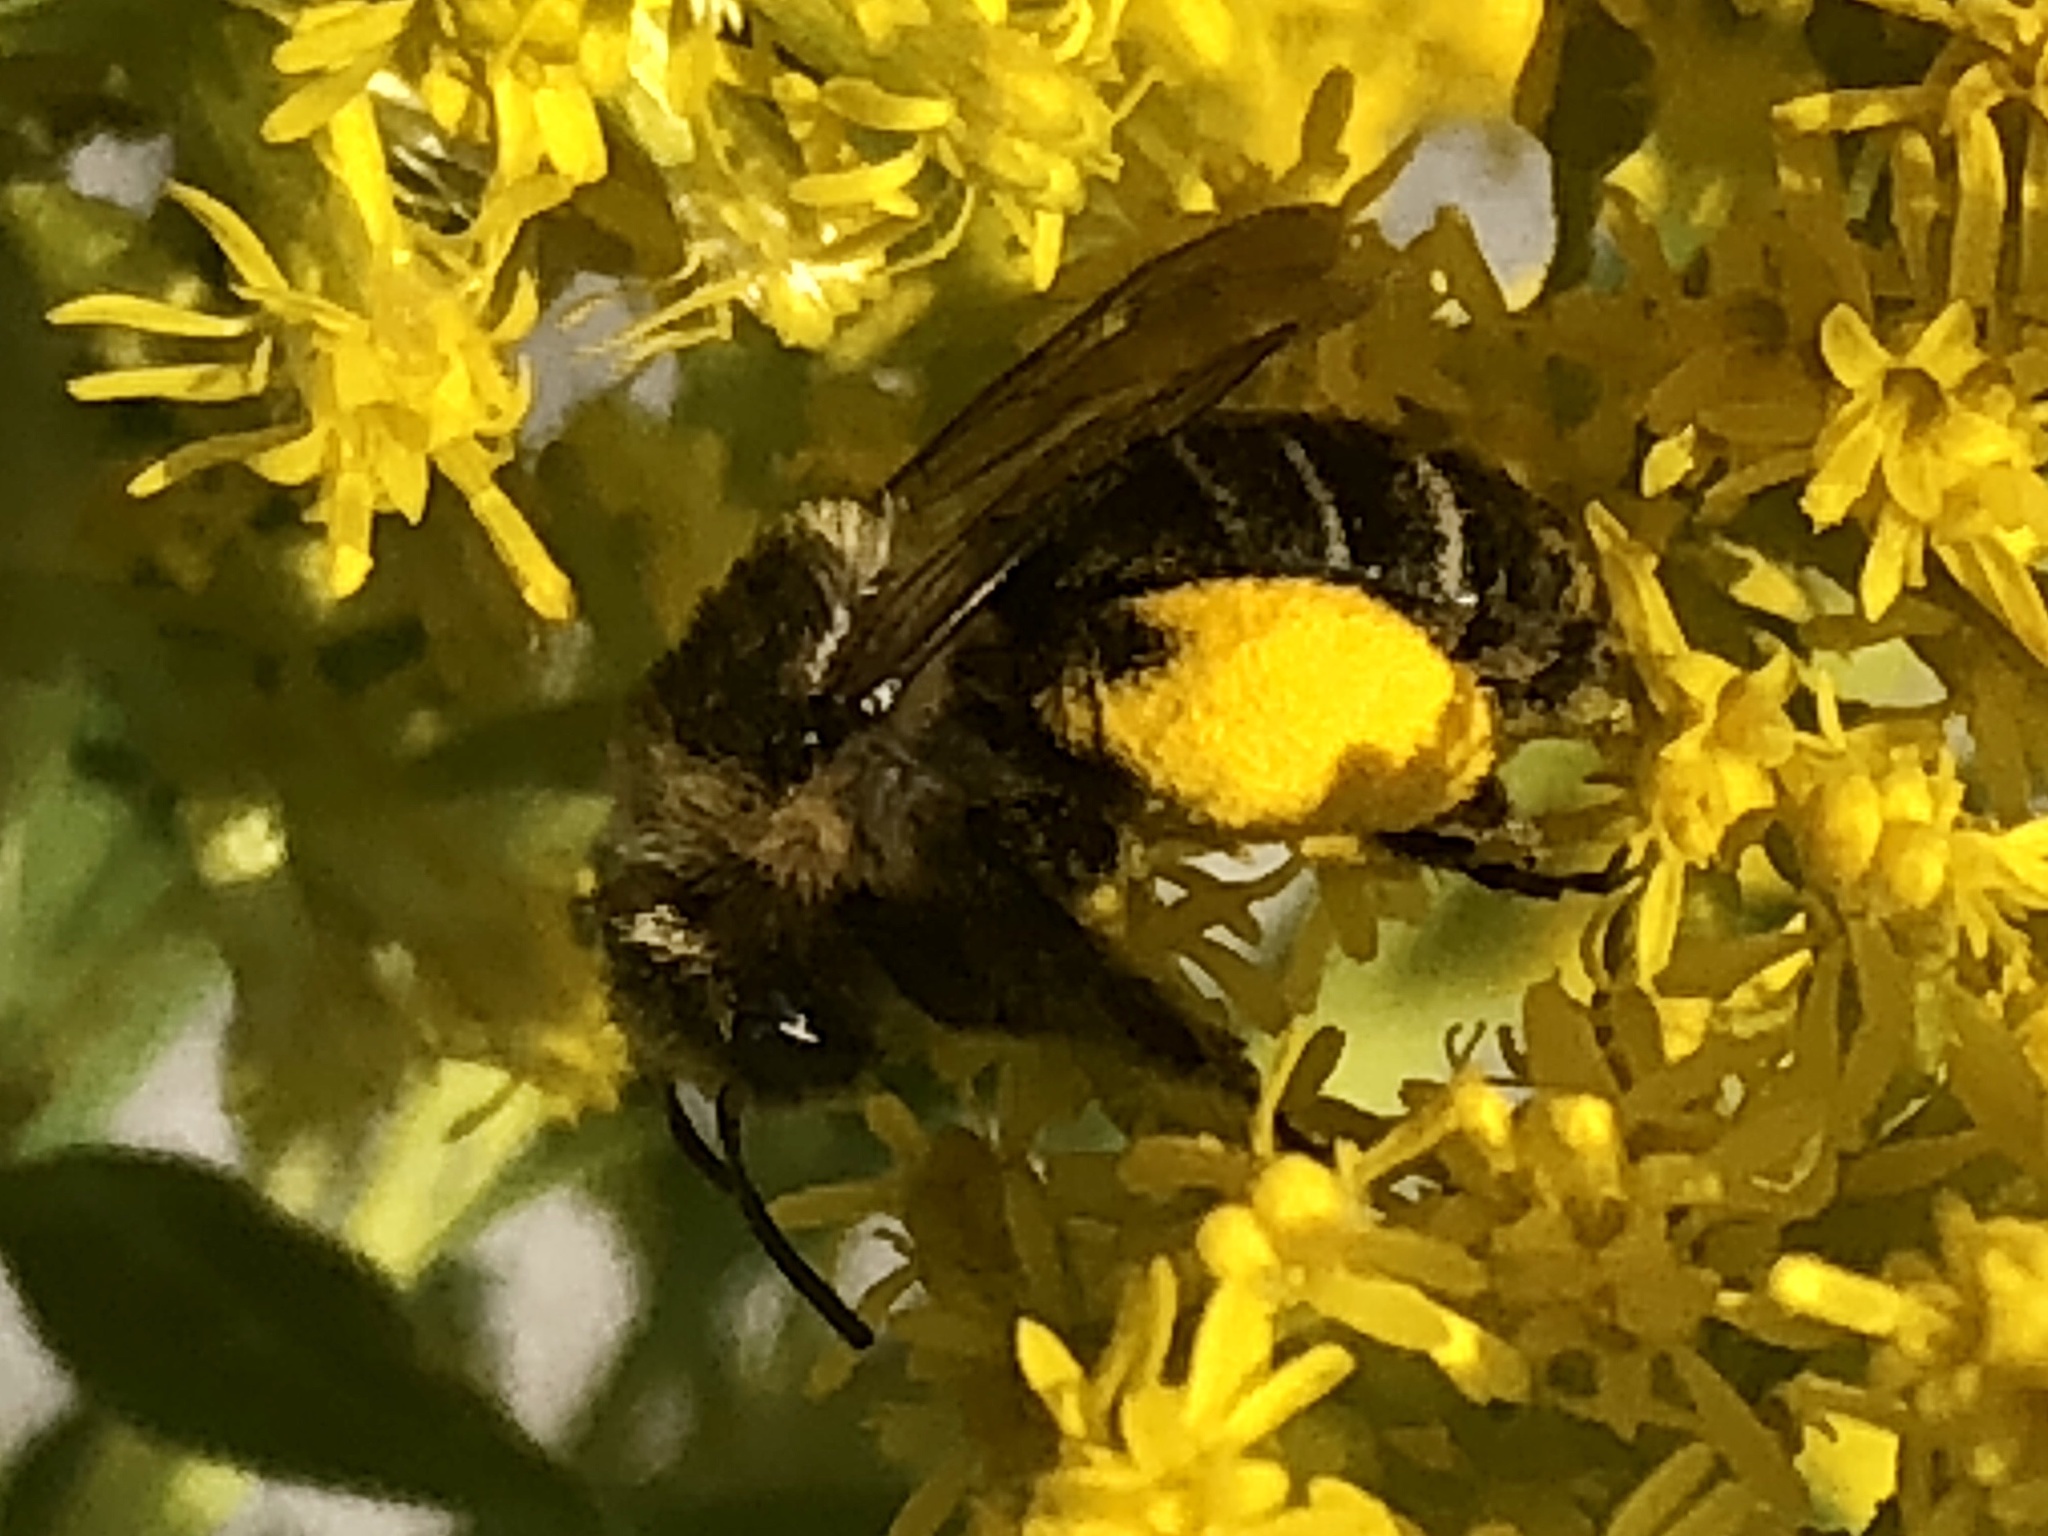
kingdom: Animalia
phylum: Arthropoda
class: Insecta
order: Hymenoptera
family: Apidae
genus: Melissodes
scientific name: Melissodes druriellus
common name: Drury's long-horned bee
